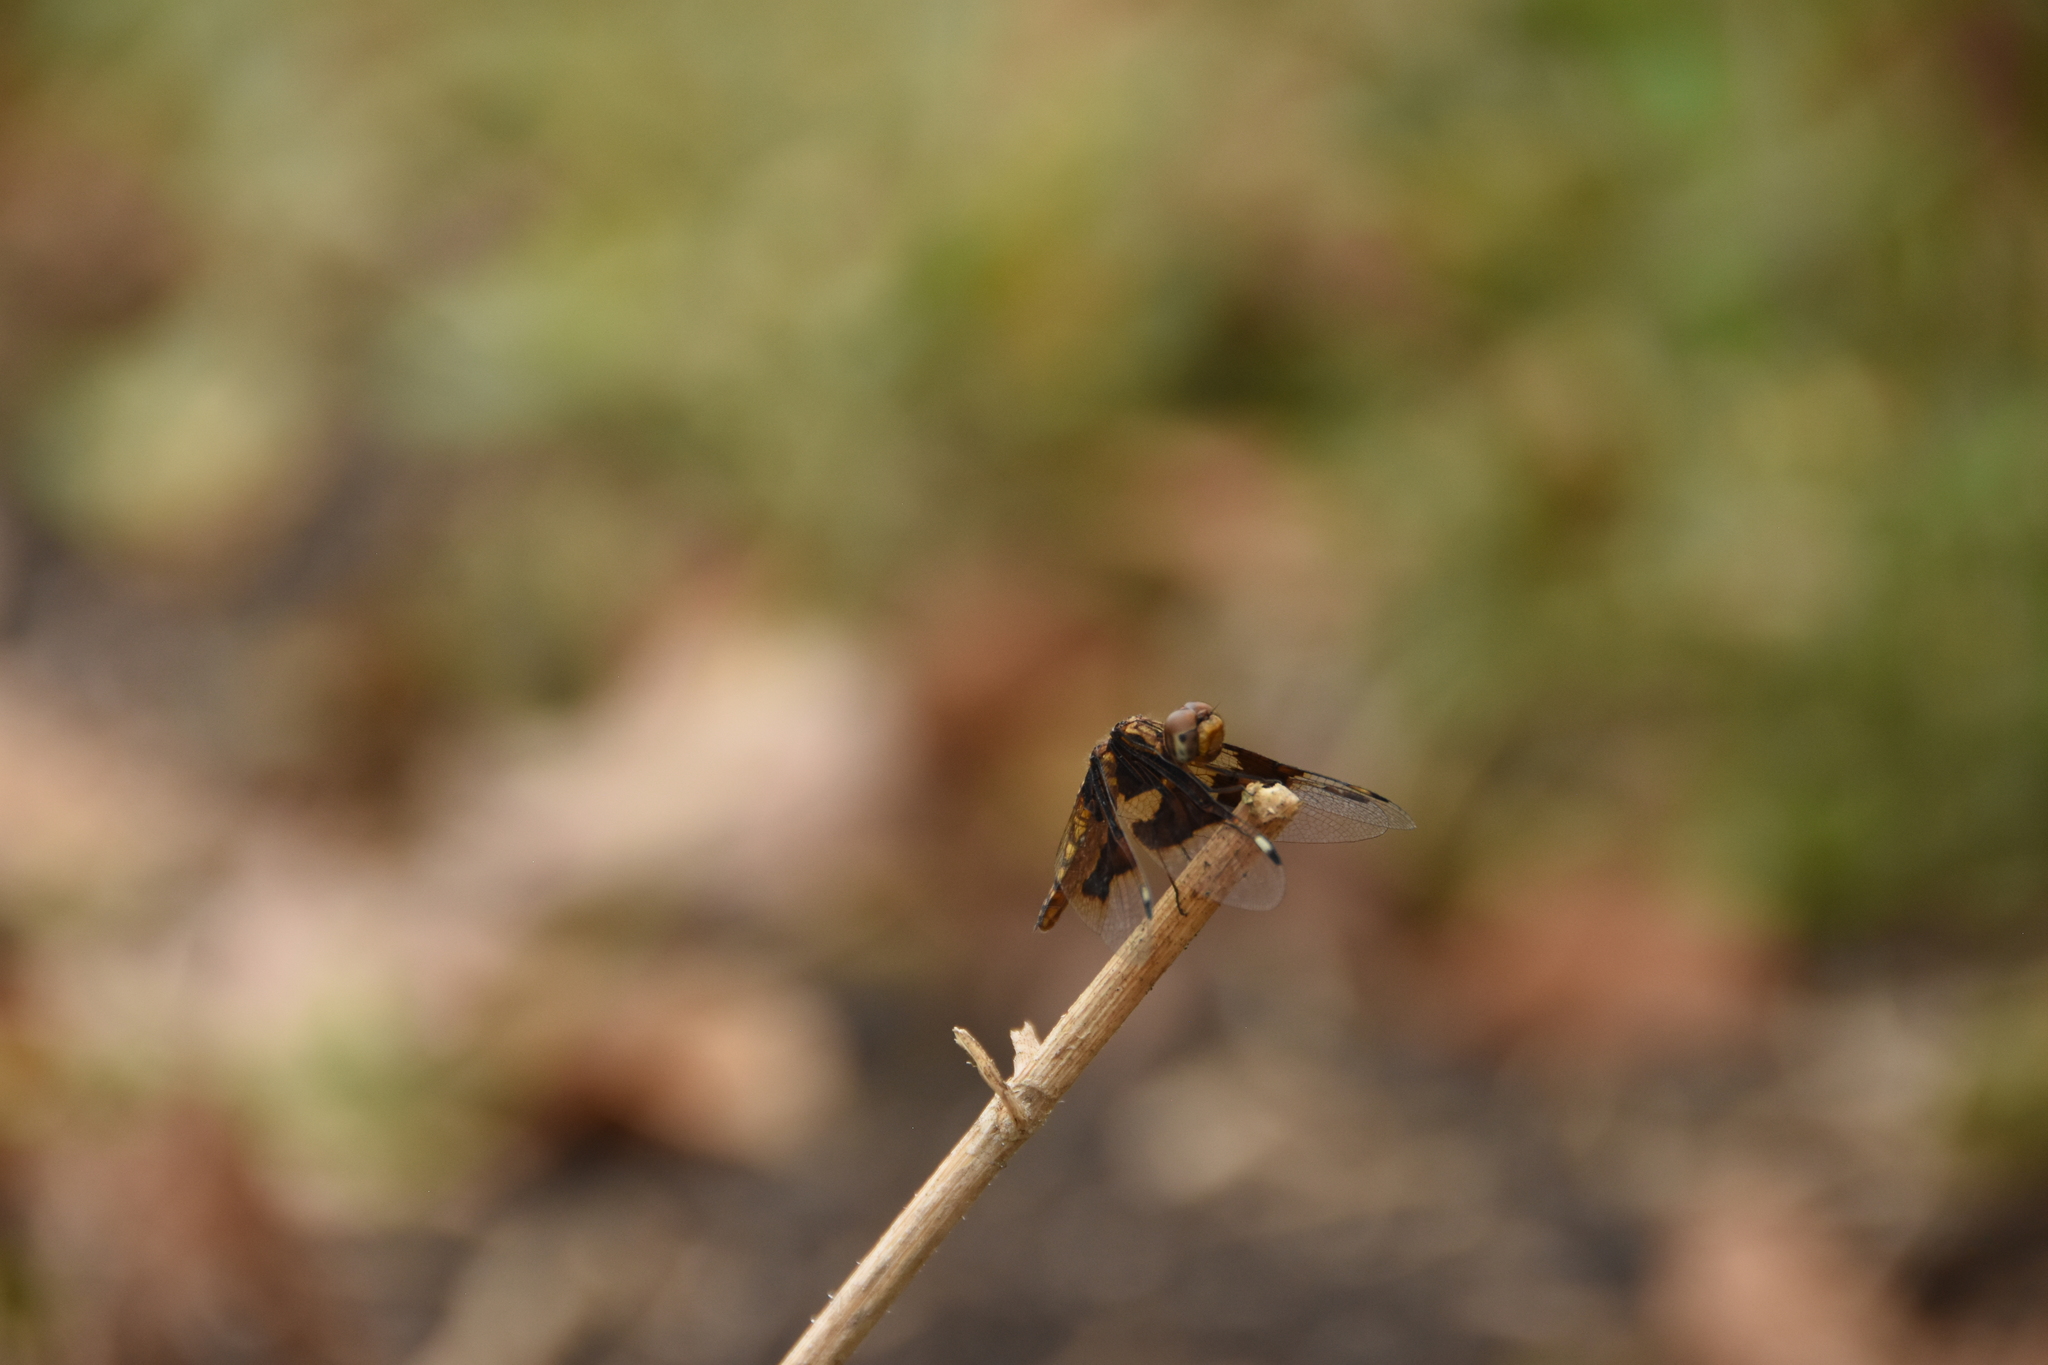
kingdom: Animalia
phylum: Arthropoda
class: Insecta
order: Odonata
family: Libellulidae
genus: Palpopleura
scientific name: Palpopleura lucia
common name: Lucia widow
